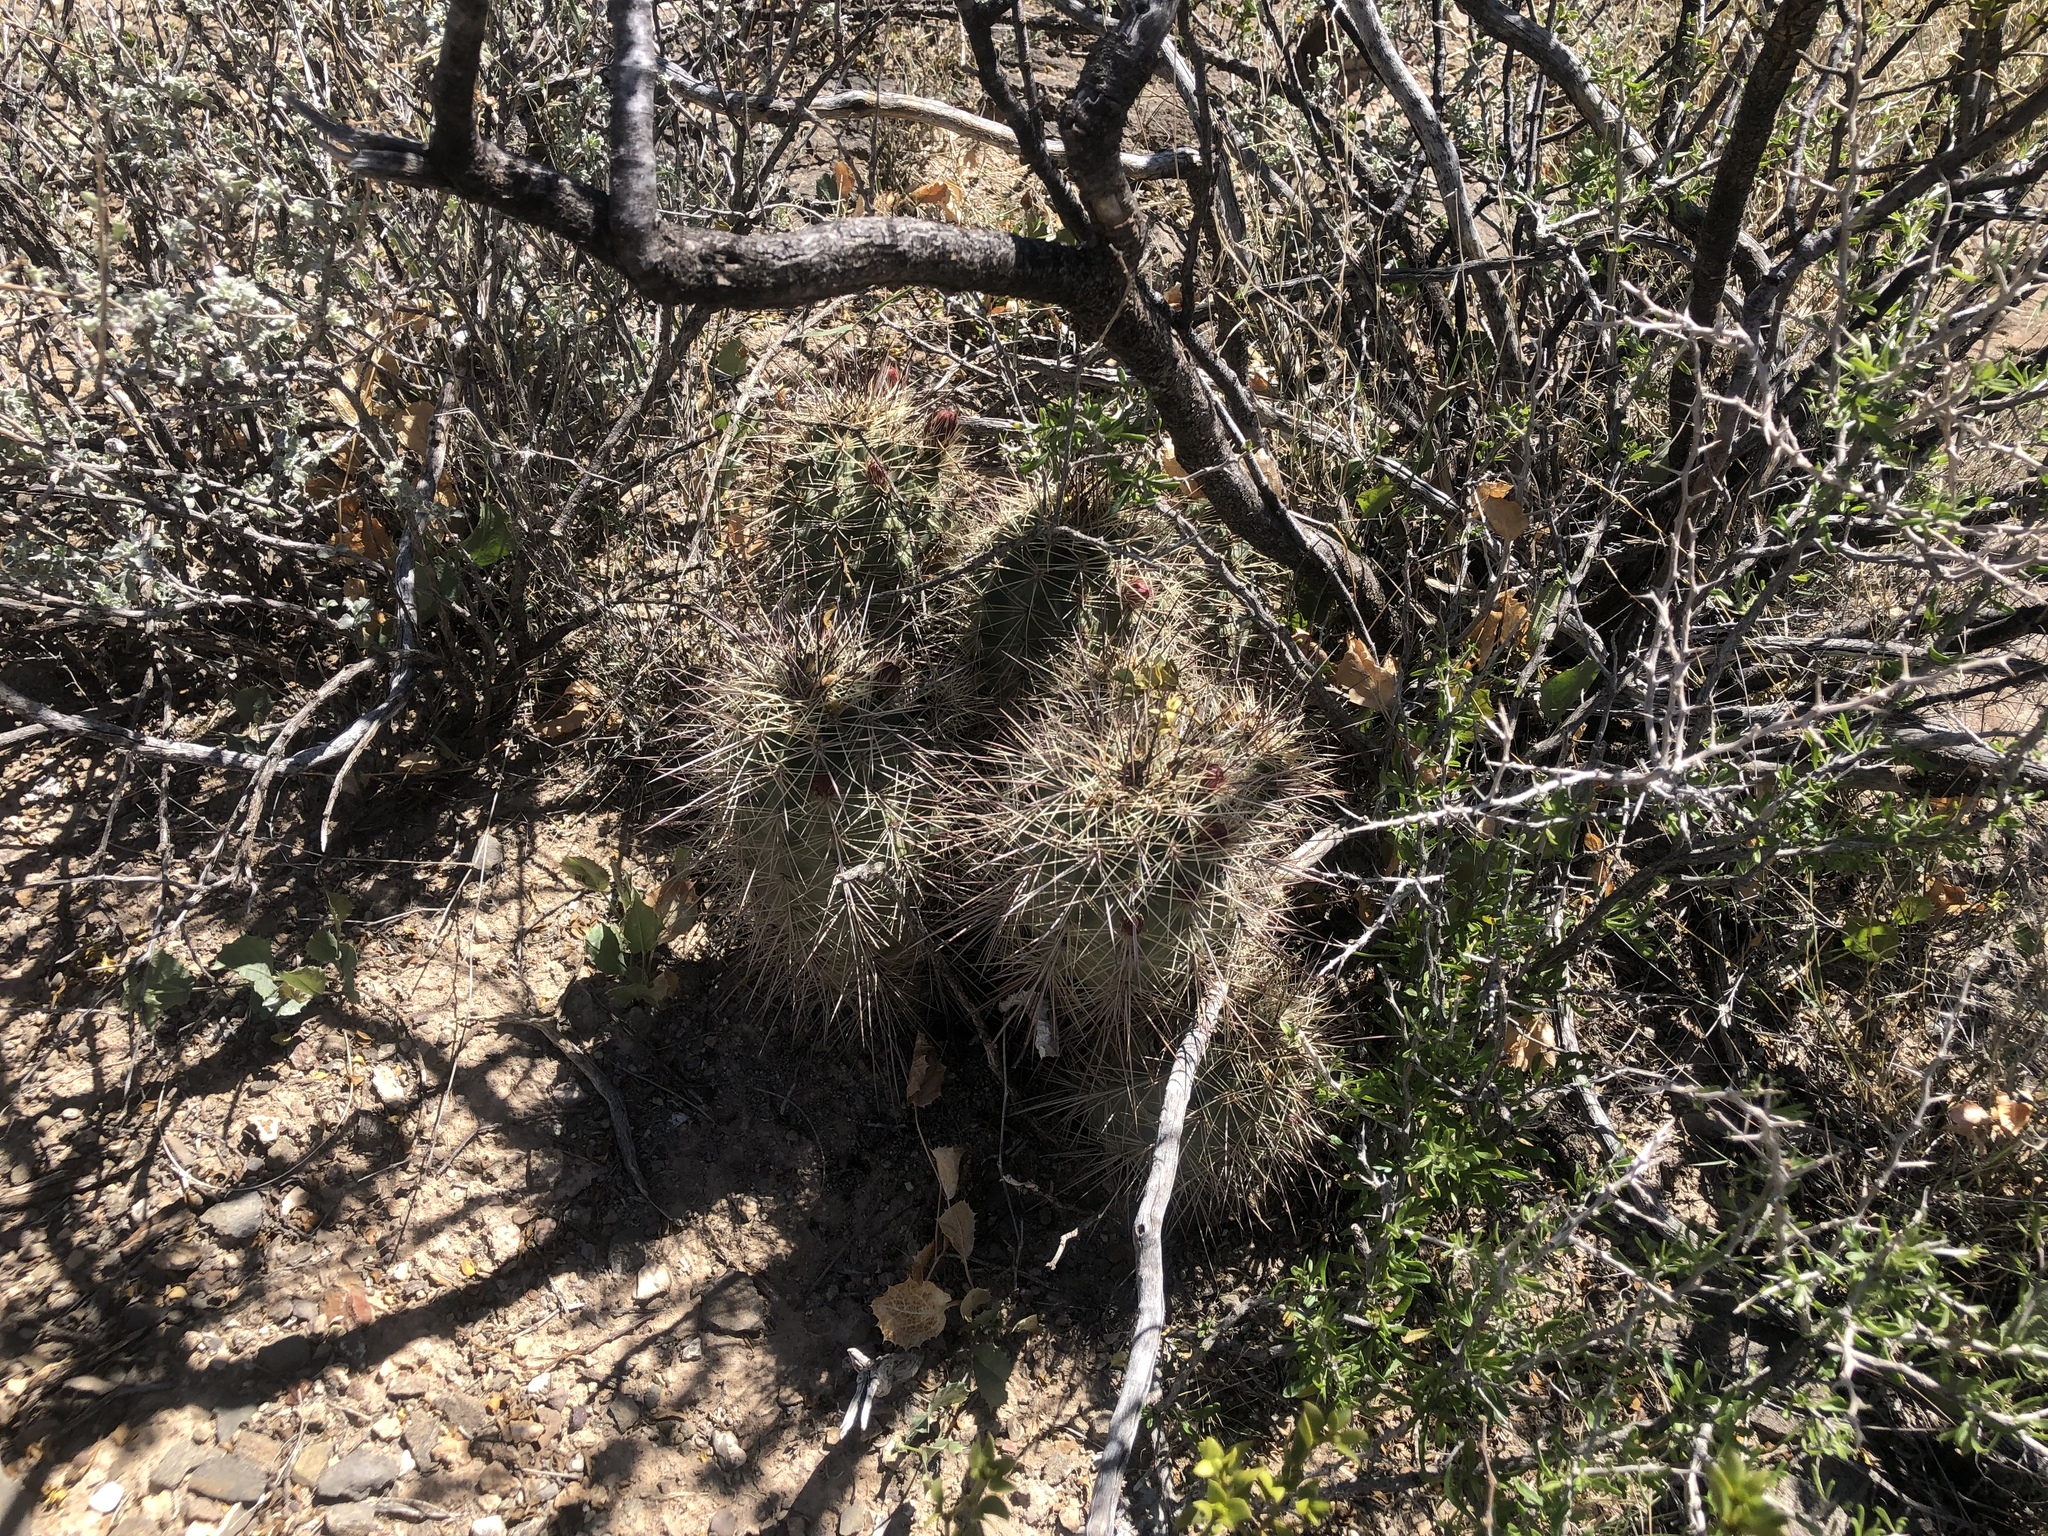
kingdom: Plantae
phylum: Tracheophyta
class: Magnoliopsida
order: Caryophyllales
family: Cactaceae
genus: Echinocereus
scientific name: Echinocereus coccineus
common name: Scarlet hedgehog cactus
